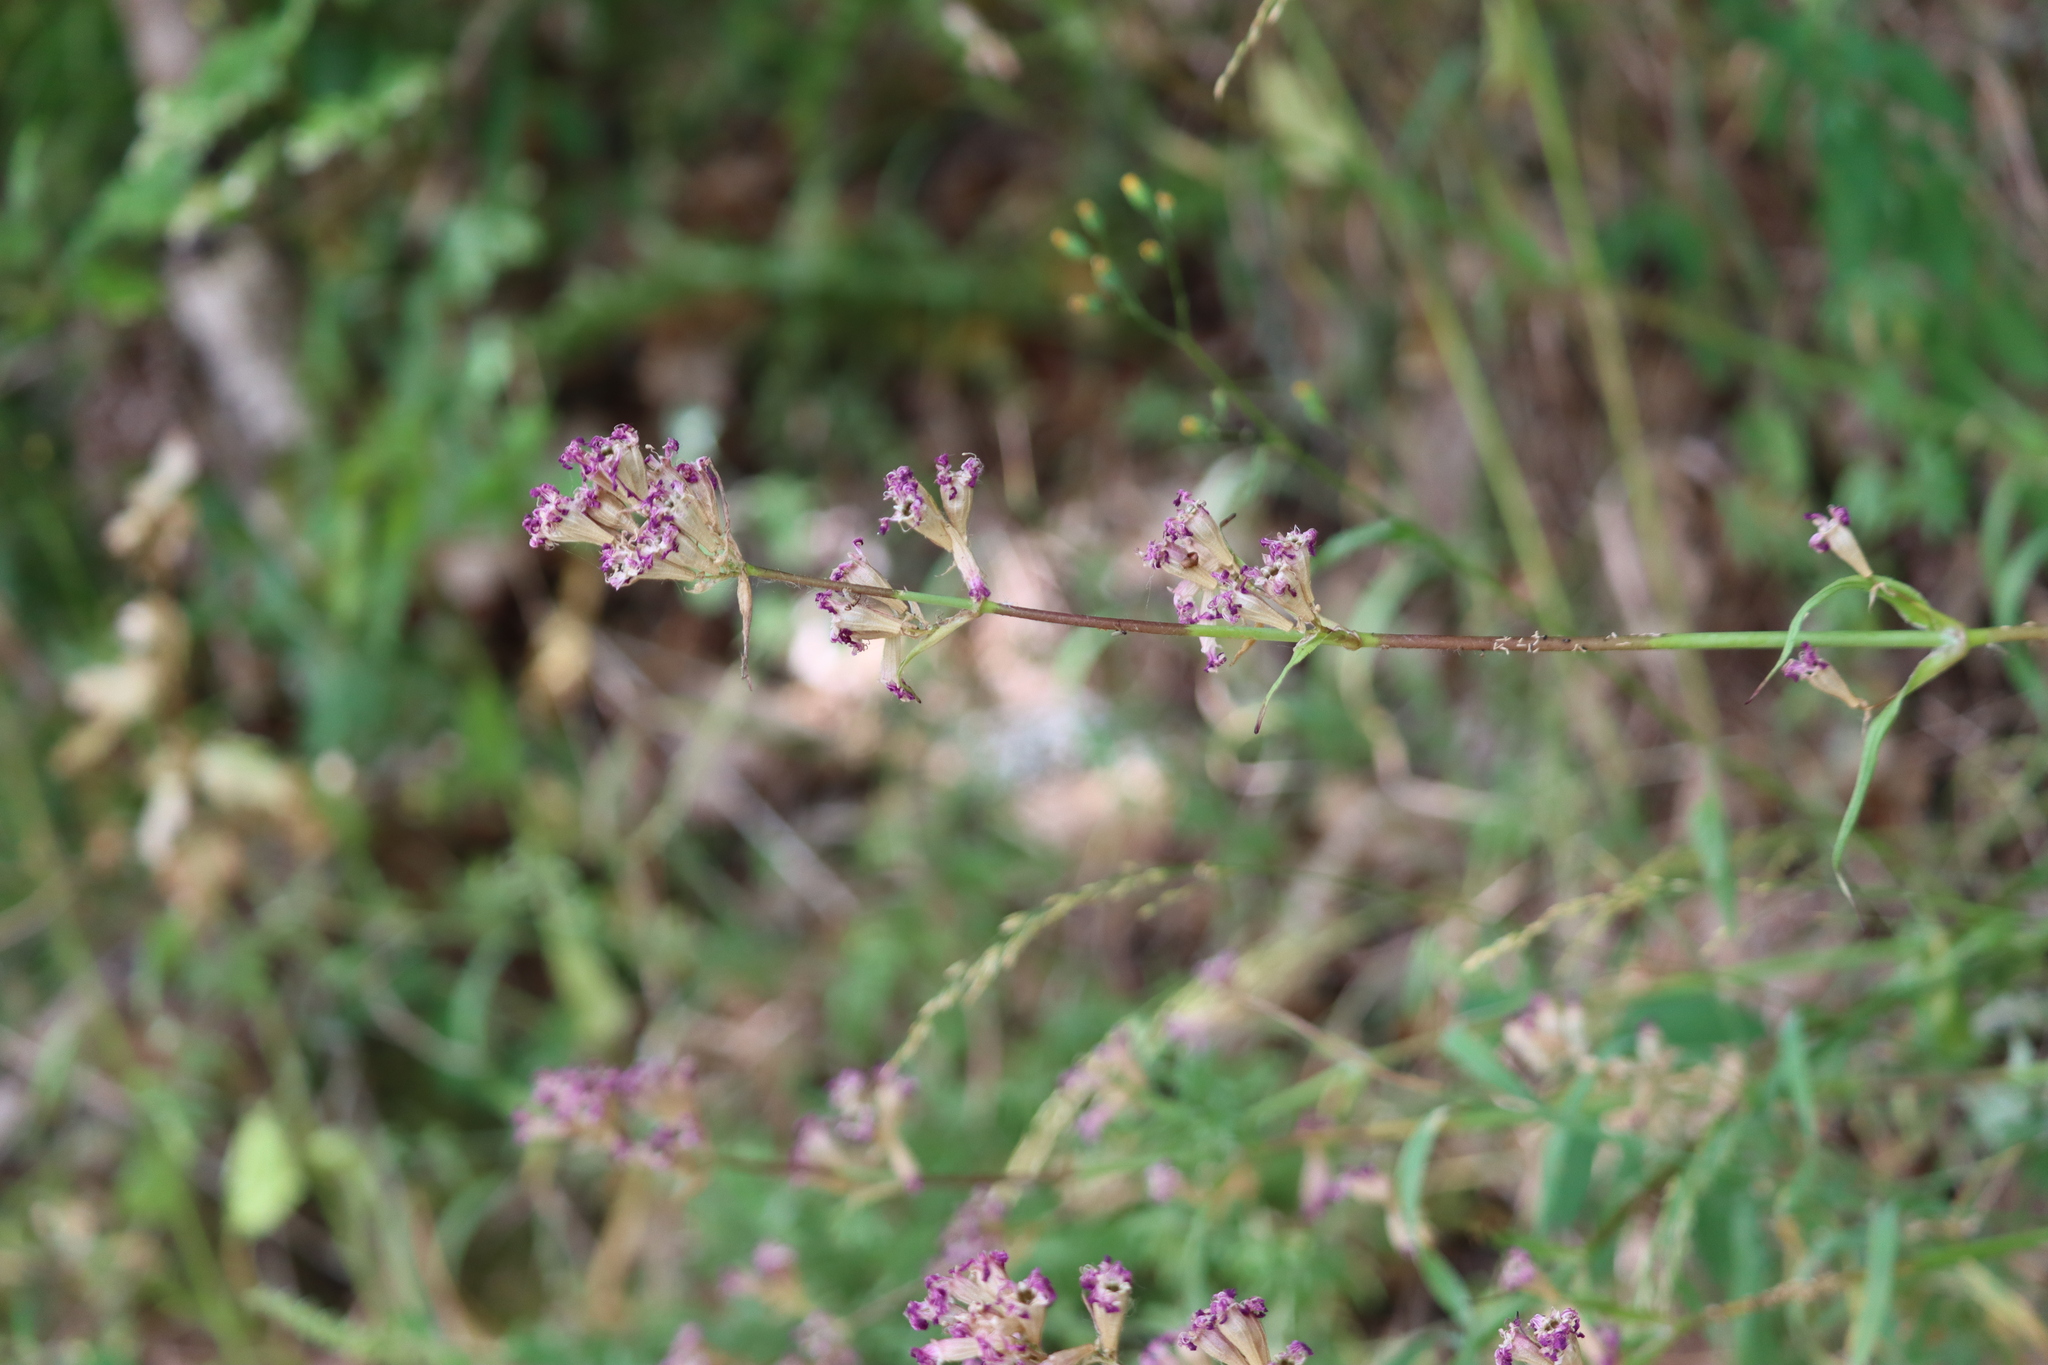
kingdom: Plantae
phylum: Tracheophyta
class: Magnoliopsida
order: Caryophyllales
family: Caryophyllaceae
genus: Viscaria
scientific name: Viscaria vulgaris
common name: Clammy campion
